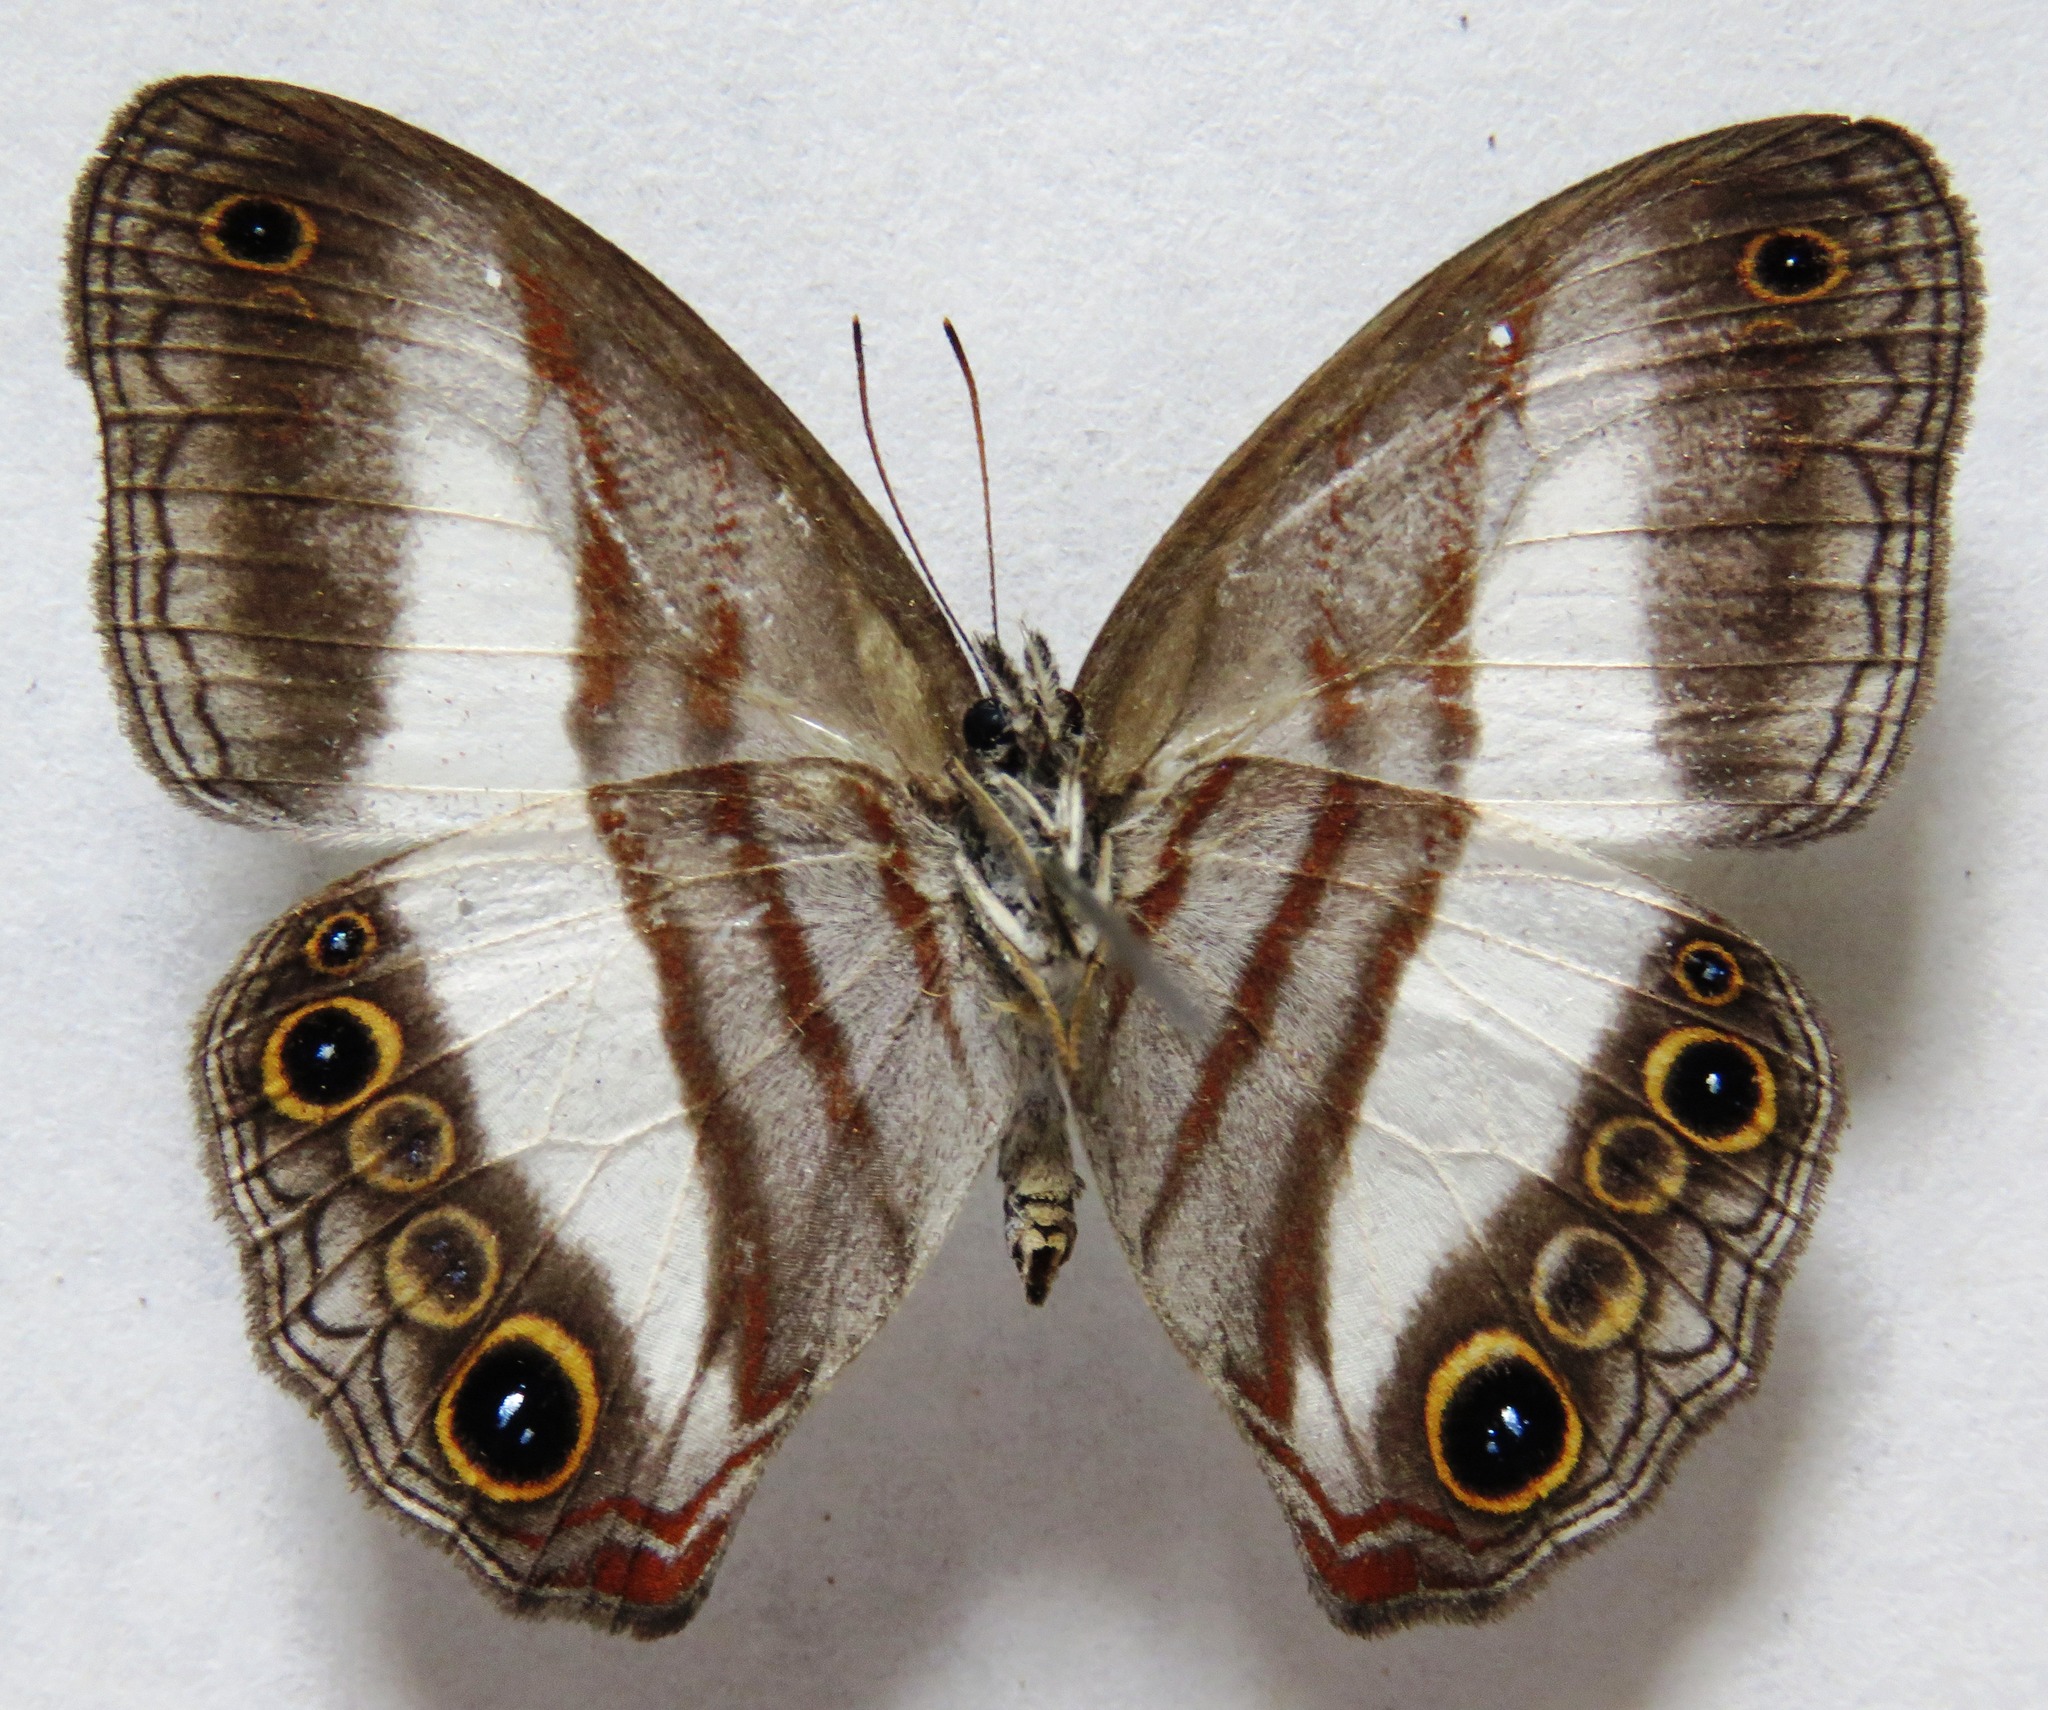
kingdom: Animalia
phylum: Arthropoda
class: Insecta
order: Lepidoptera
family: Nymphalidae
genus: Pareuptychia
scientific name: Pareuptychia metaleuca
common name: White-banded satyr
